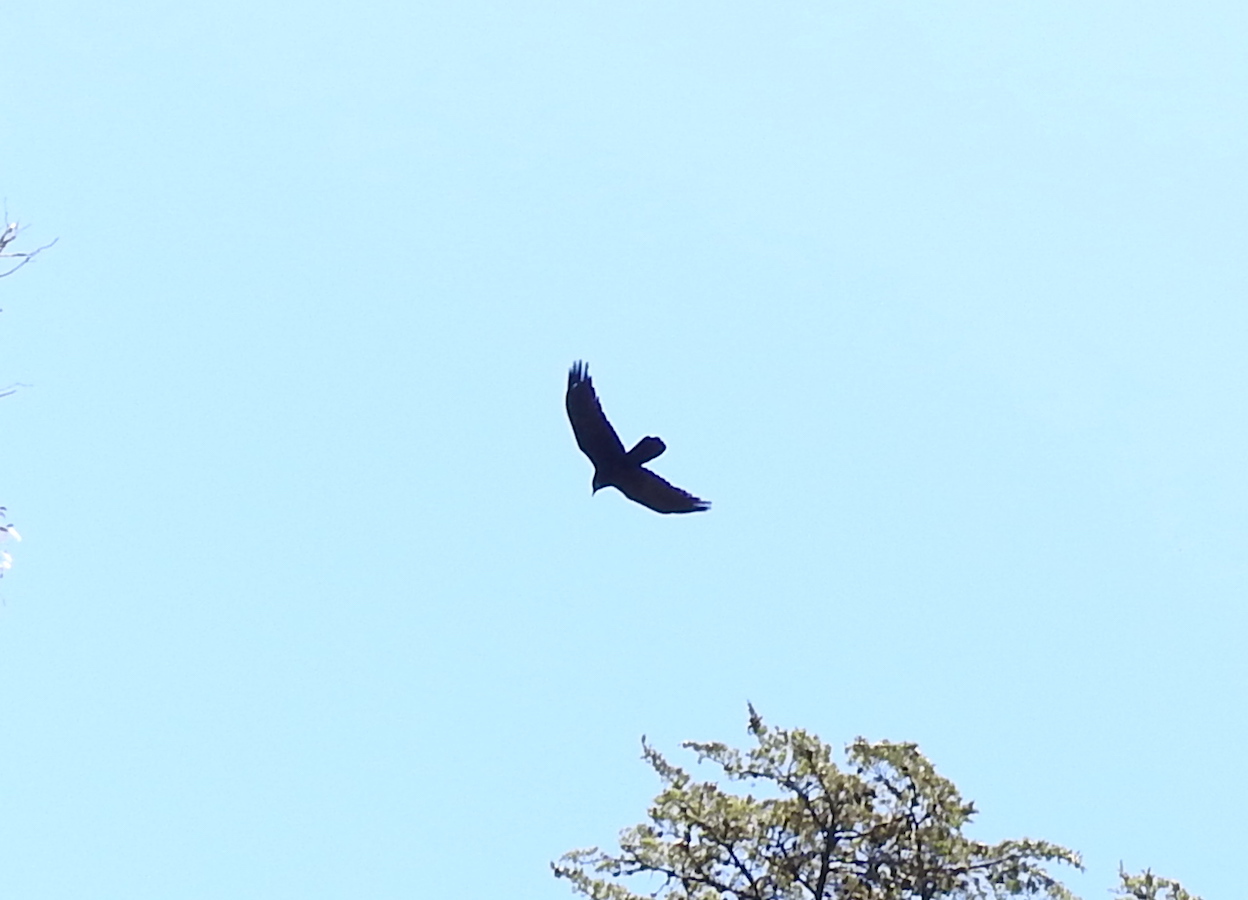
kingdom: Animalia
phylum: Chordata
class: Aves
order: Passeriformes
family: Corvidae
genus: Corvus
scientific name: Corvus corax
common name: Common raven
